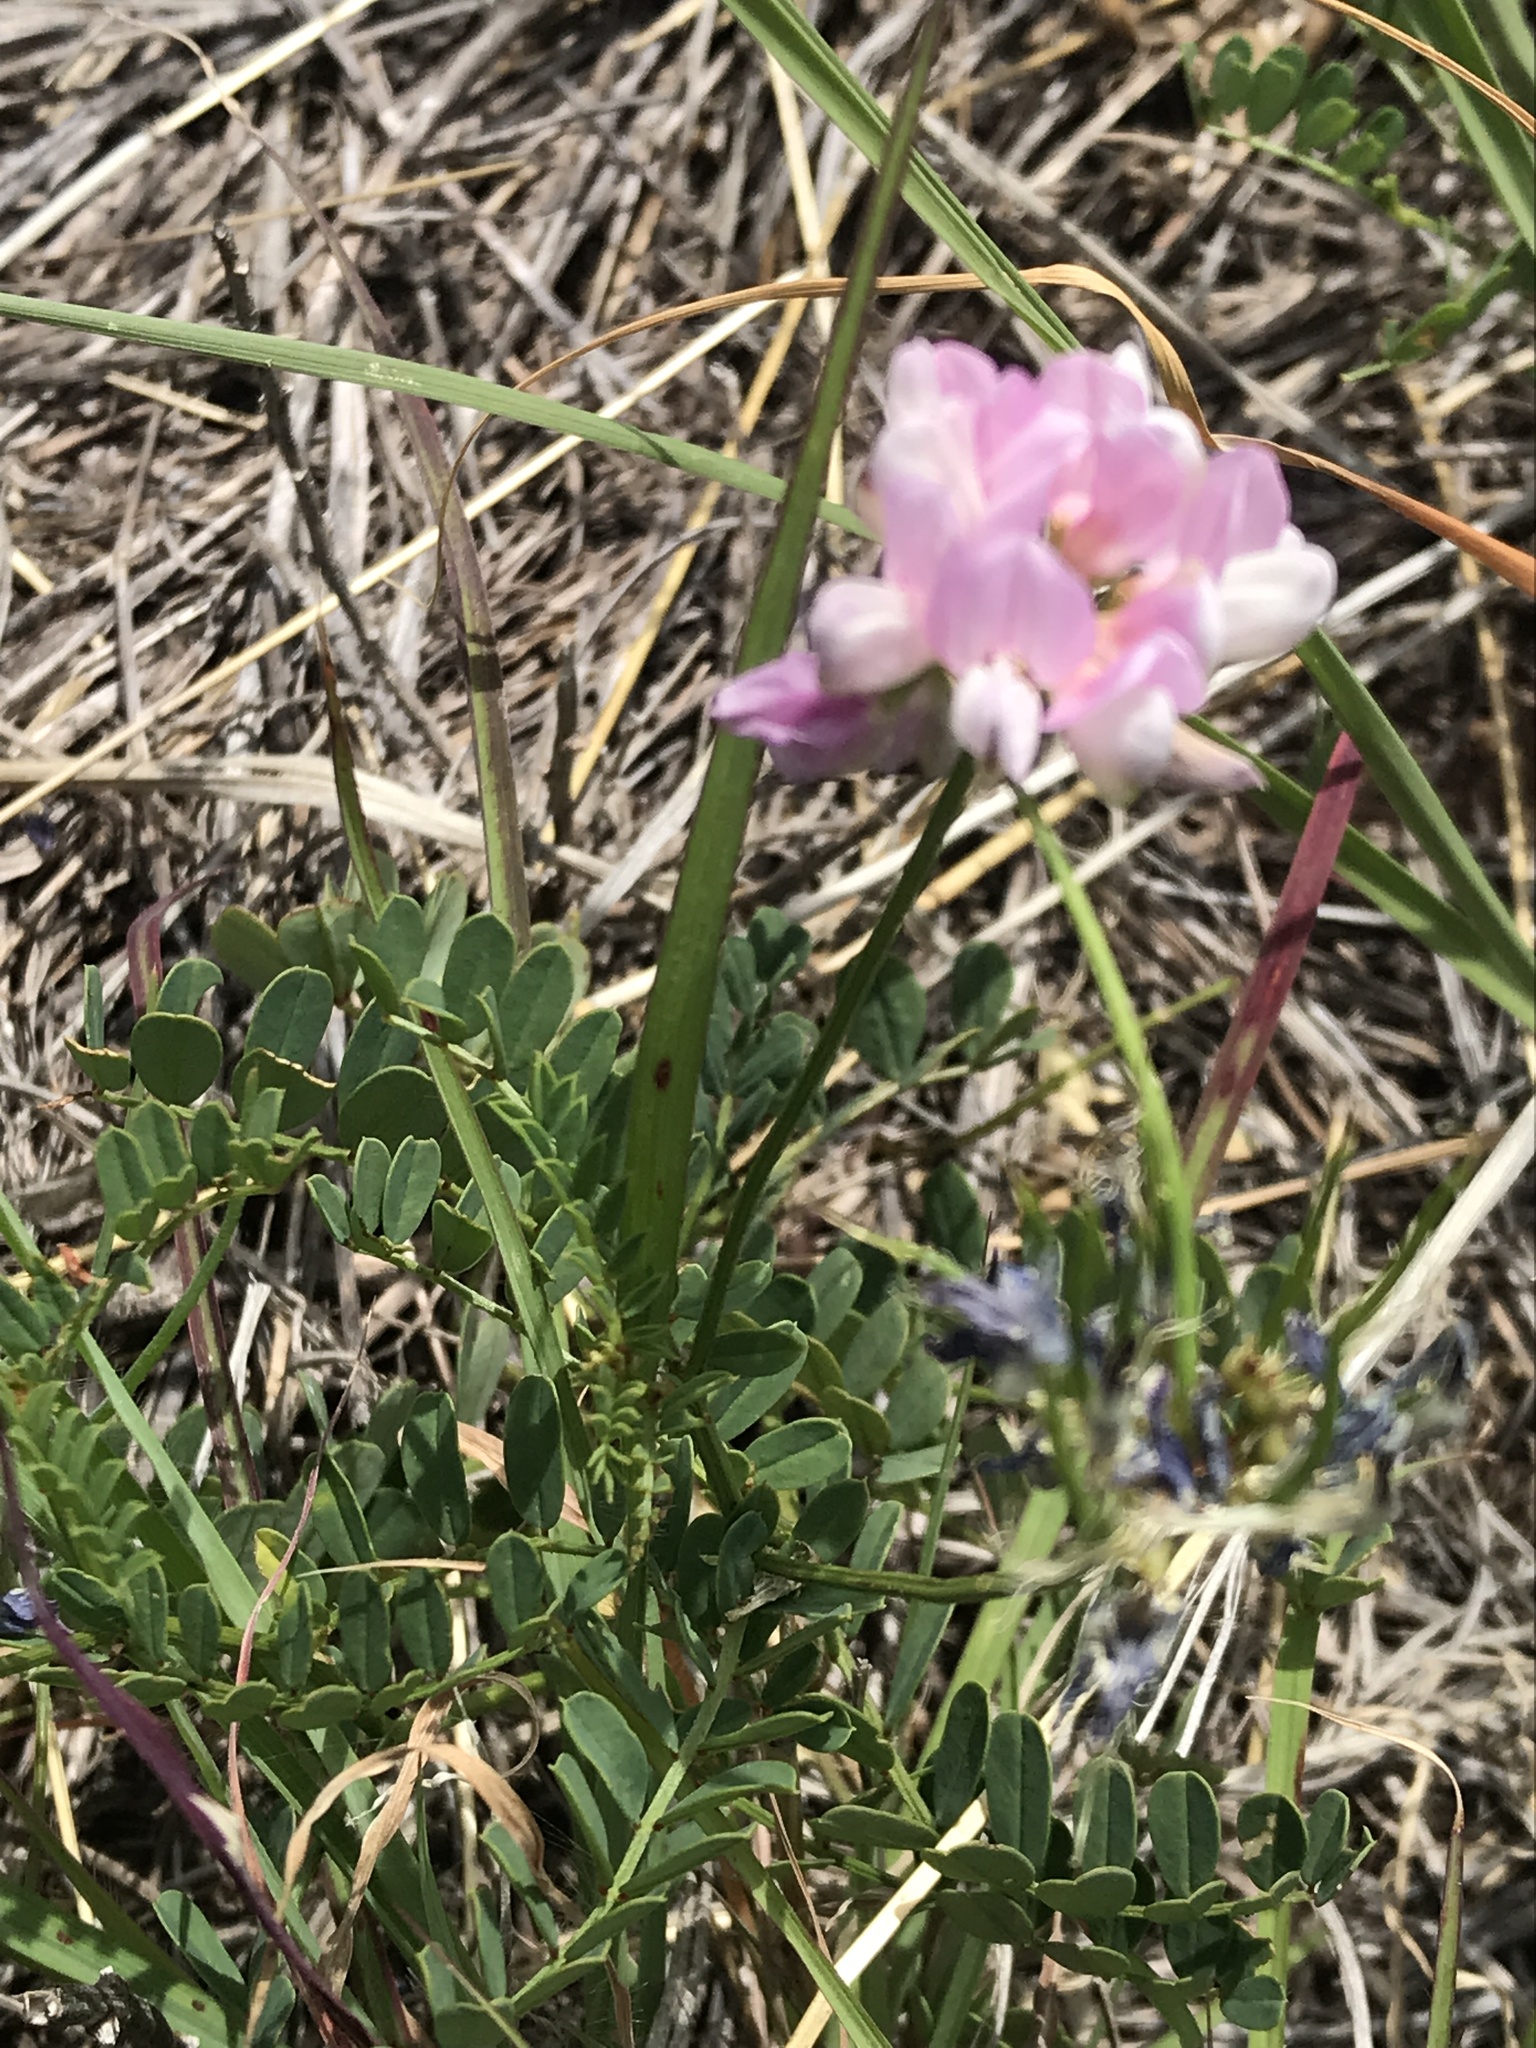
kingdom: Plantae
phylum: Tracheophyta
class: Magnoliopsida
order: Fabales
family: Fabaceae
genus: Coronilla
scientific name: Coronilla varia
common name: Crownvetch
